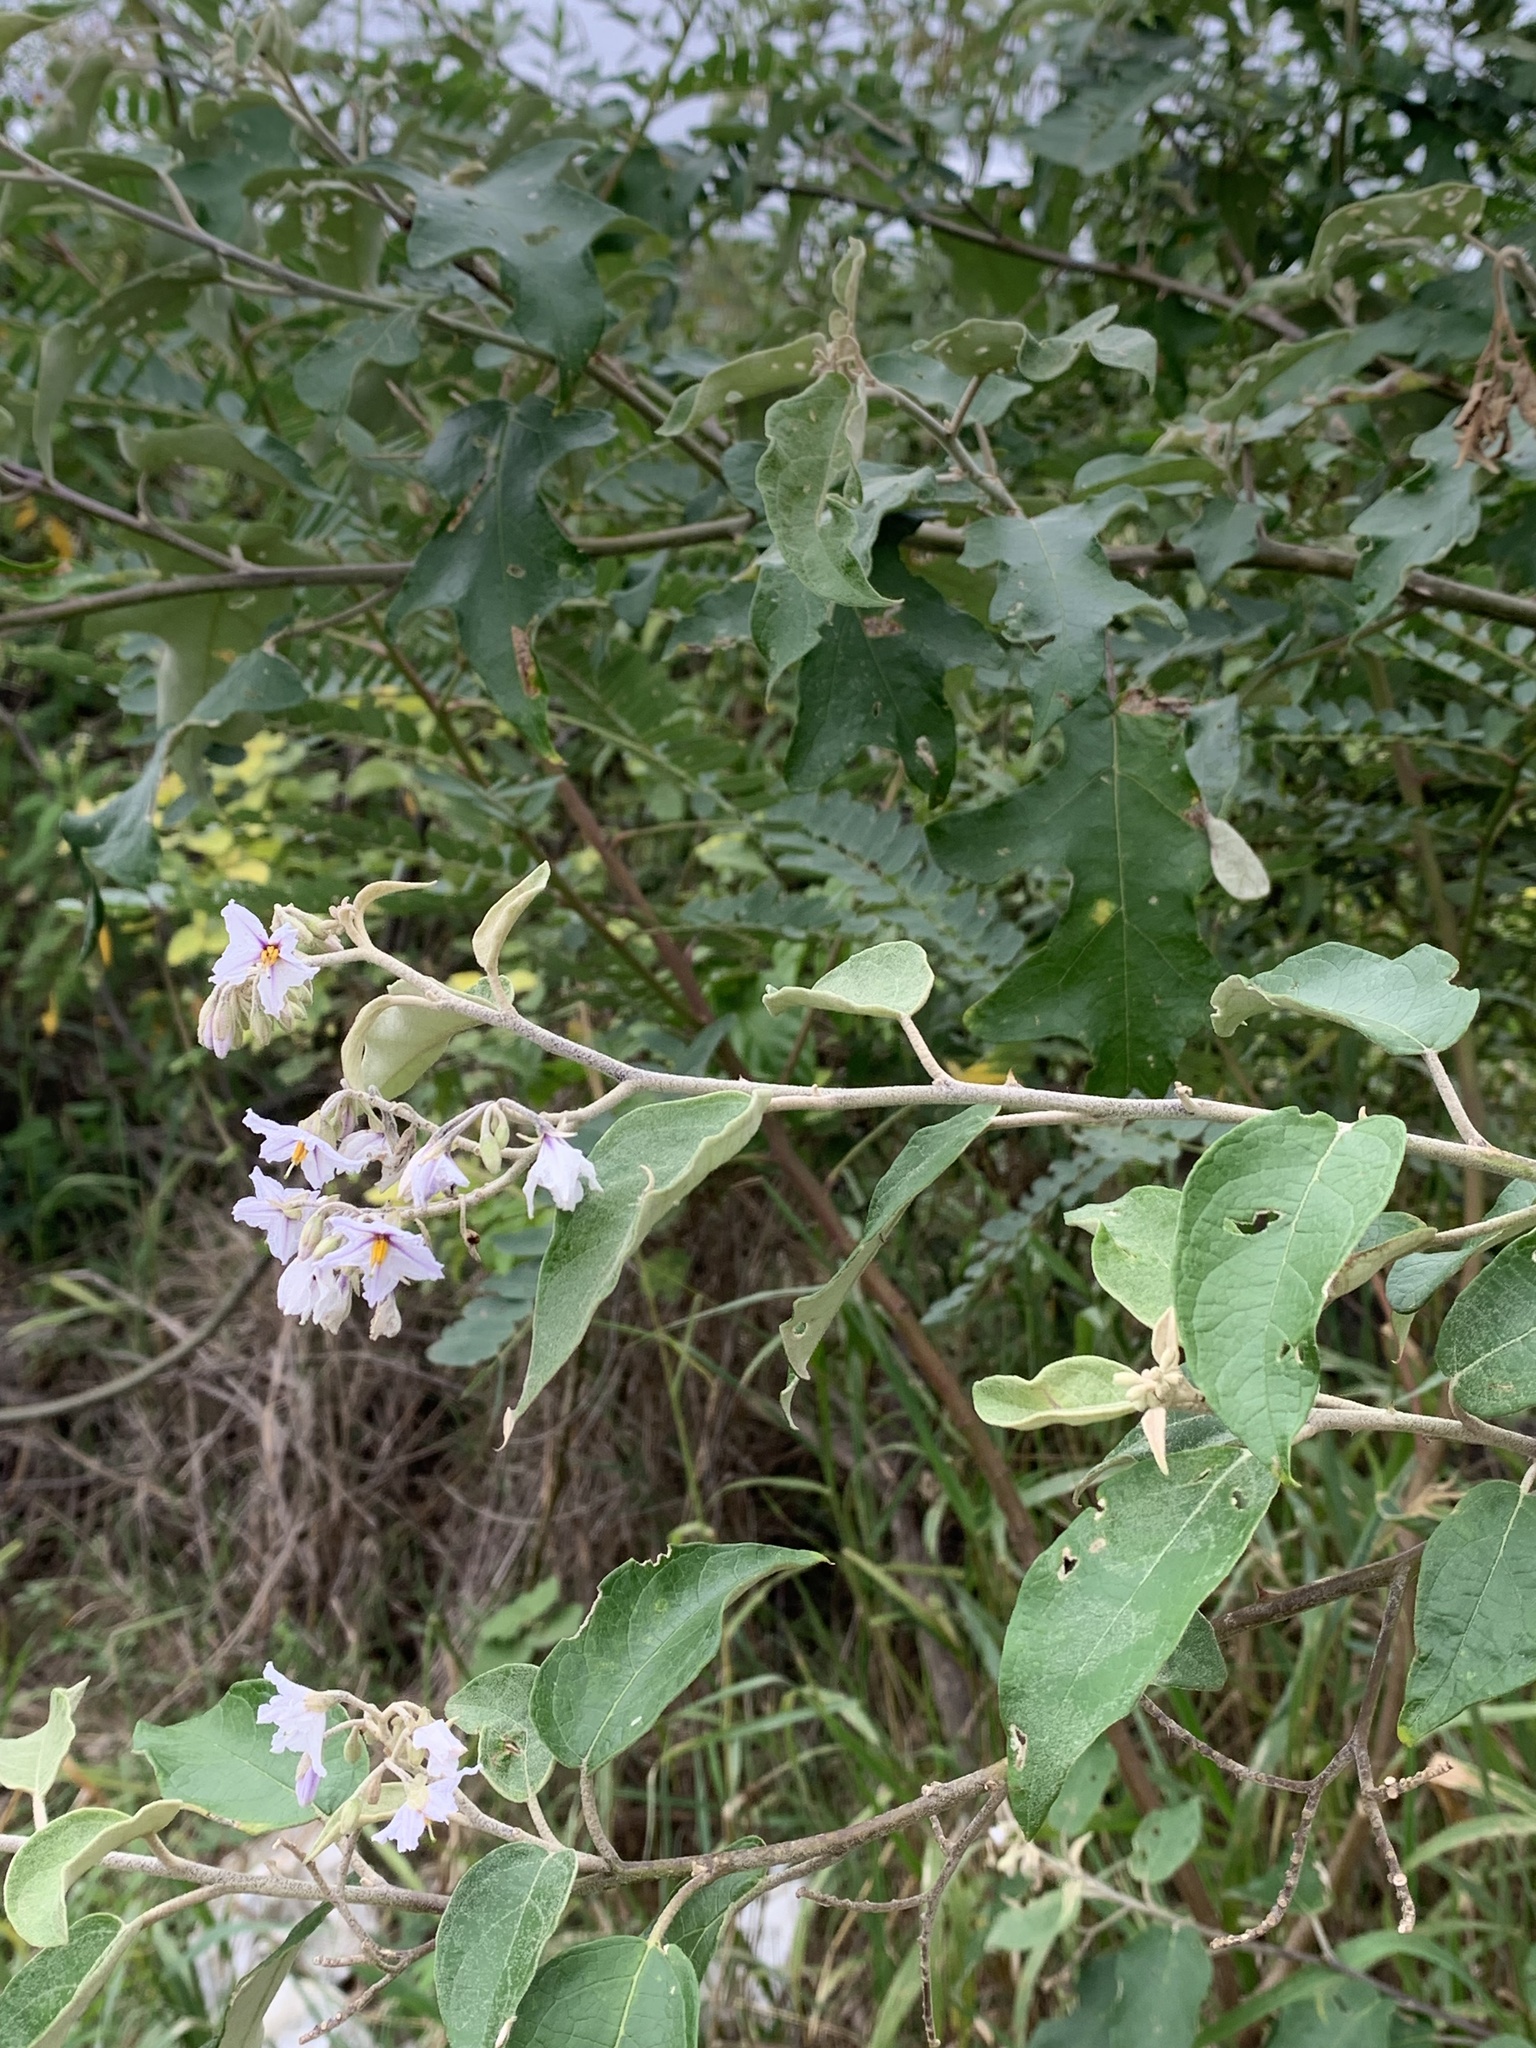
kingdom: Plantae
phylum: Tracheophyta
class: Magnoliopsida
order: Solanales
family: Solanaceae
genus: Solanum
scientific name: Solanum paniculatum
